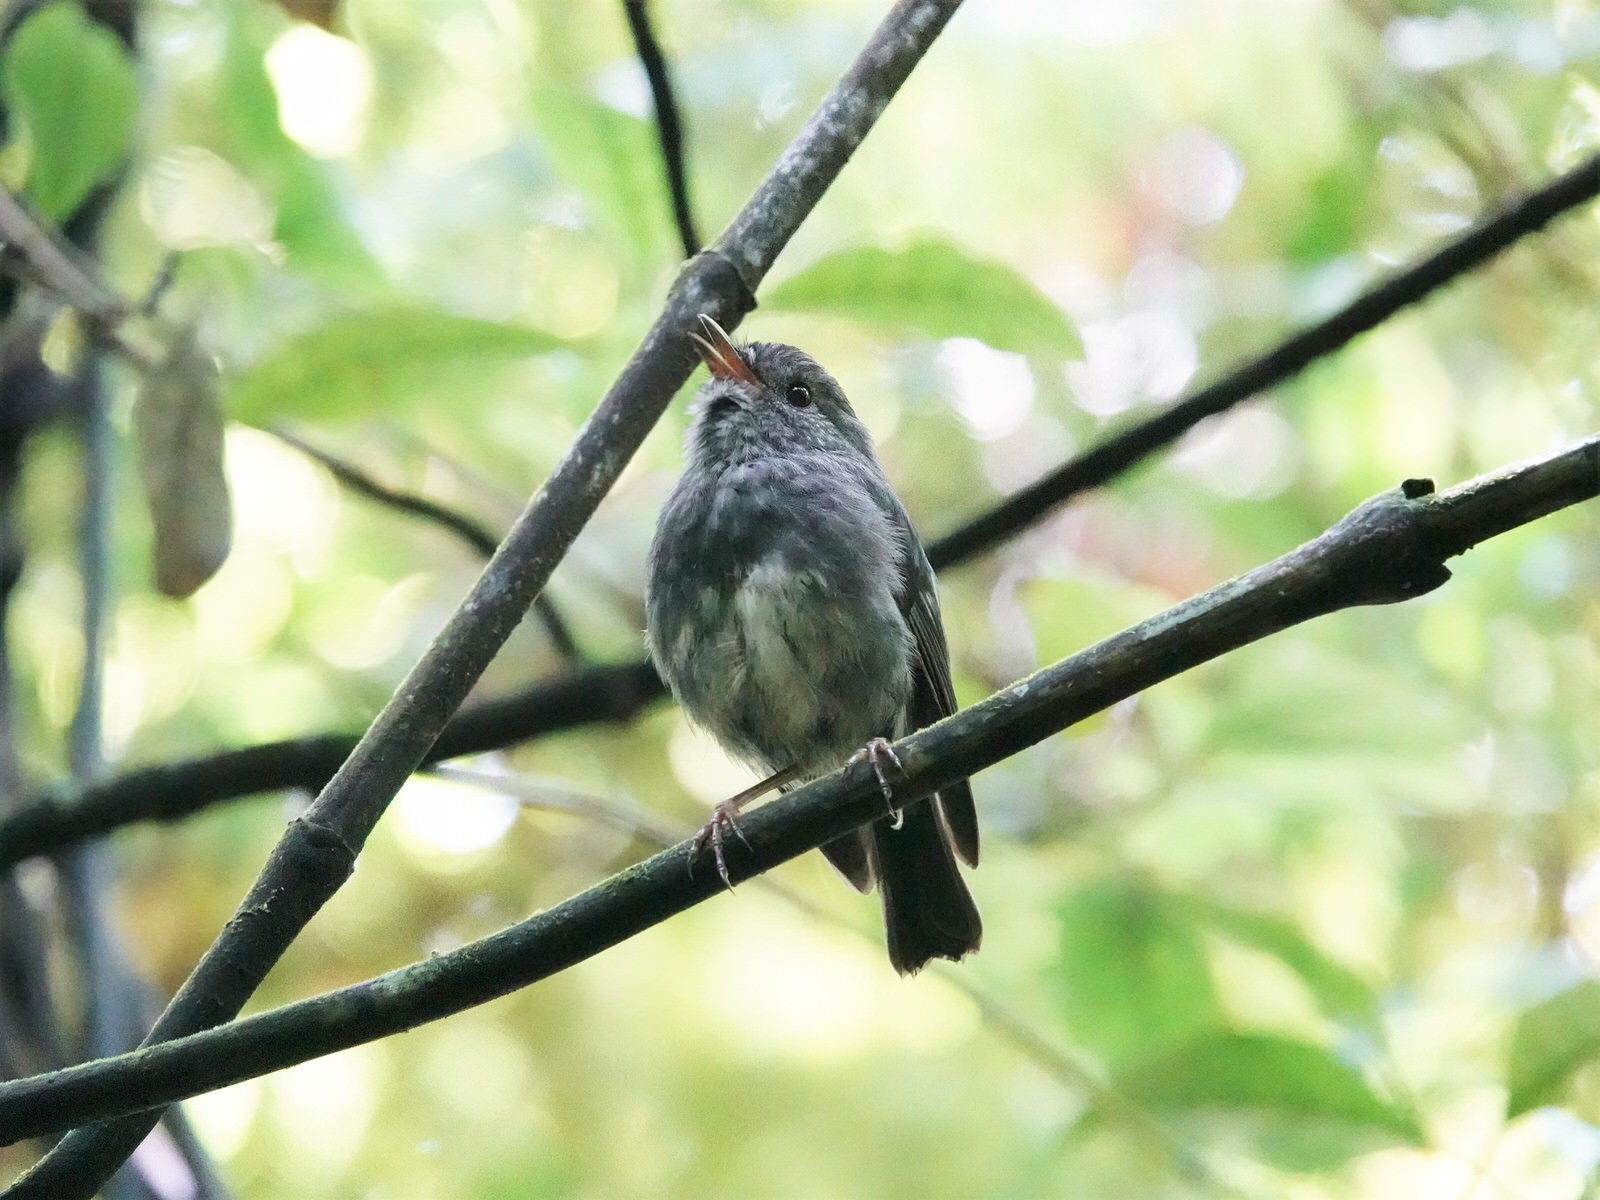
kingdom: Animalia
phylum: Chordata
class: Aves
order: Passeriformes
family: Petroicidae
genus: Petroica
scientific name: Petroica australis
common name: New zealand robin
